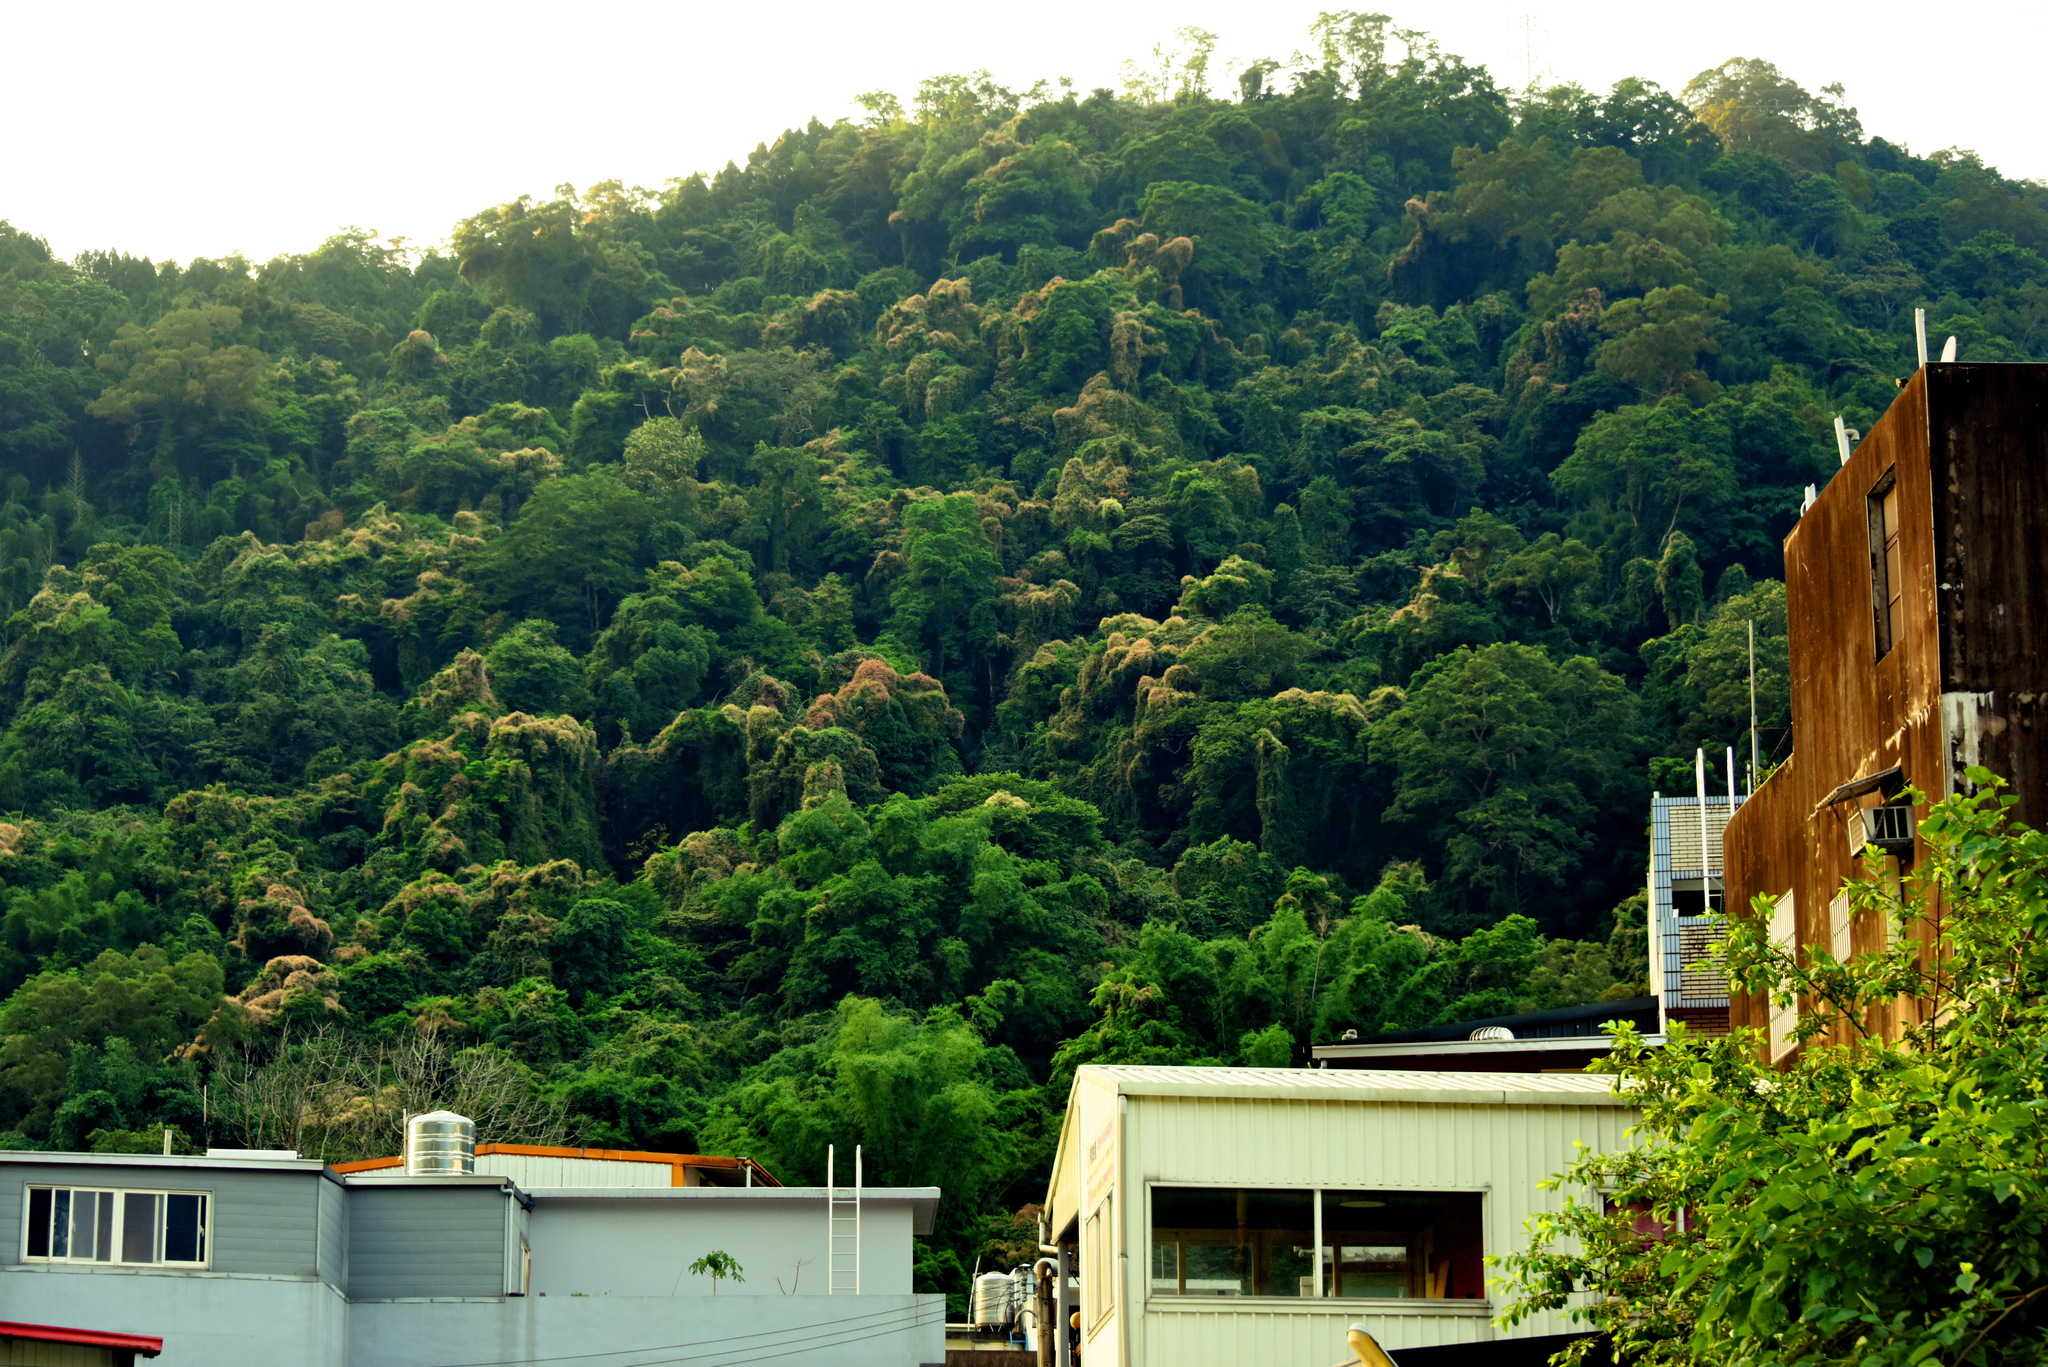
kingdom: Plantae
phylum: Tracheophyta
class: Magnoliopsida
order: Gentianales
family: Apocynaceae
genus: Urceola
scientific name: Urceola rosea
